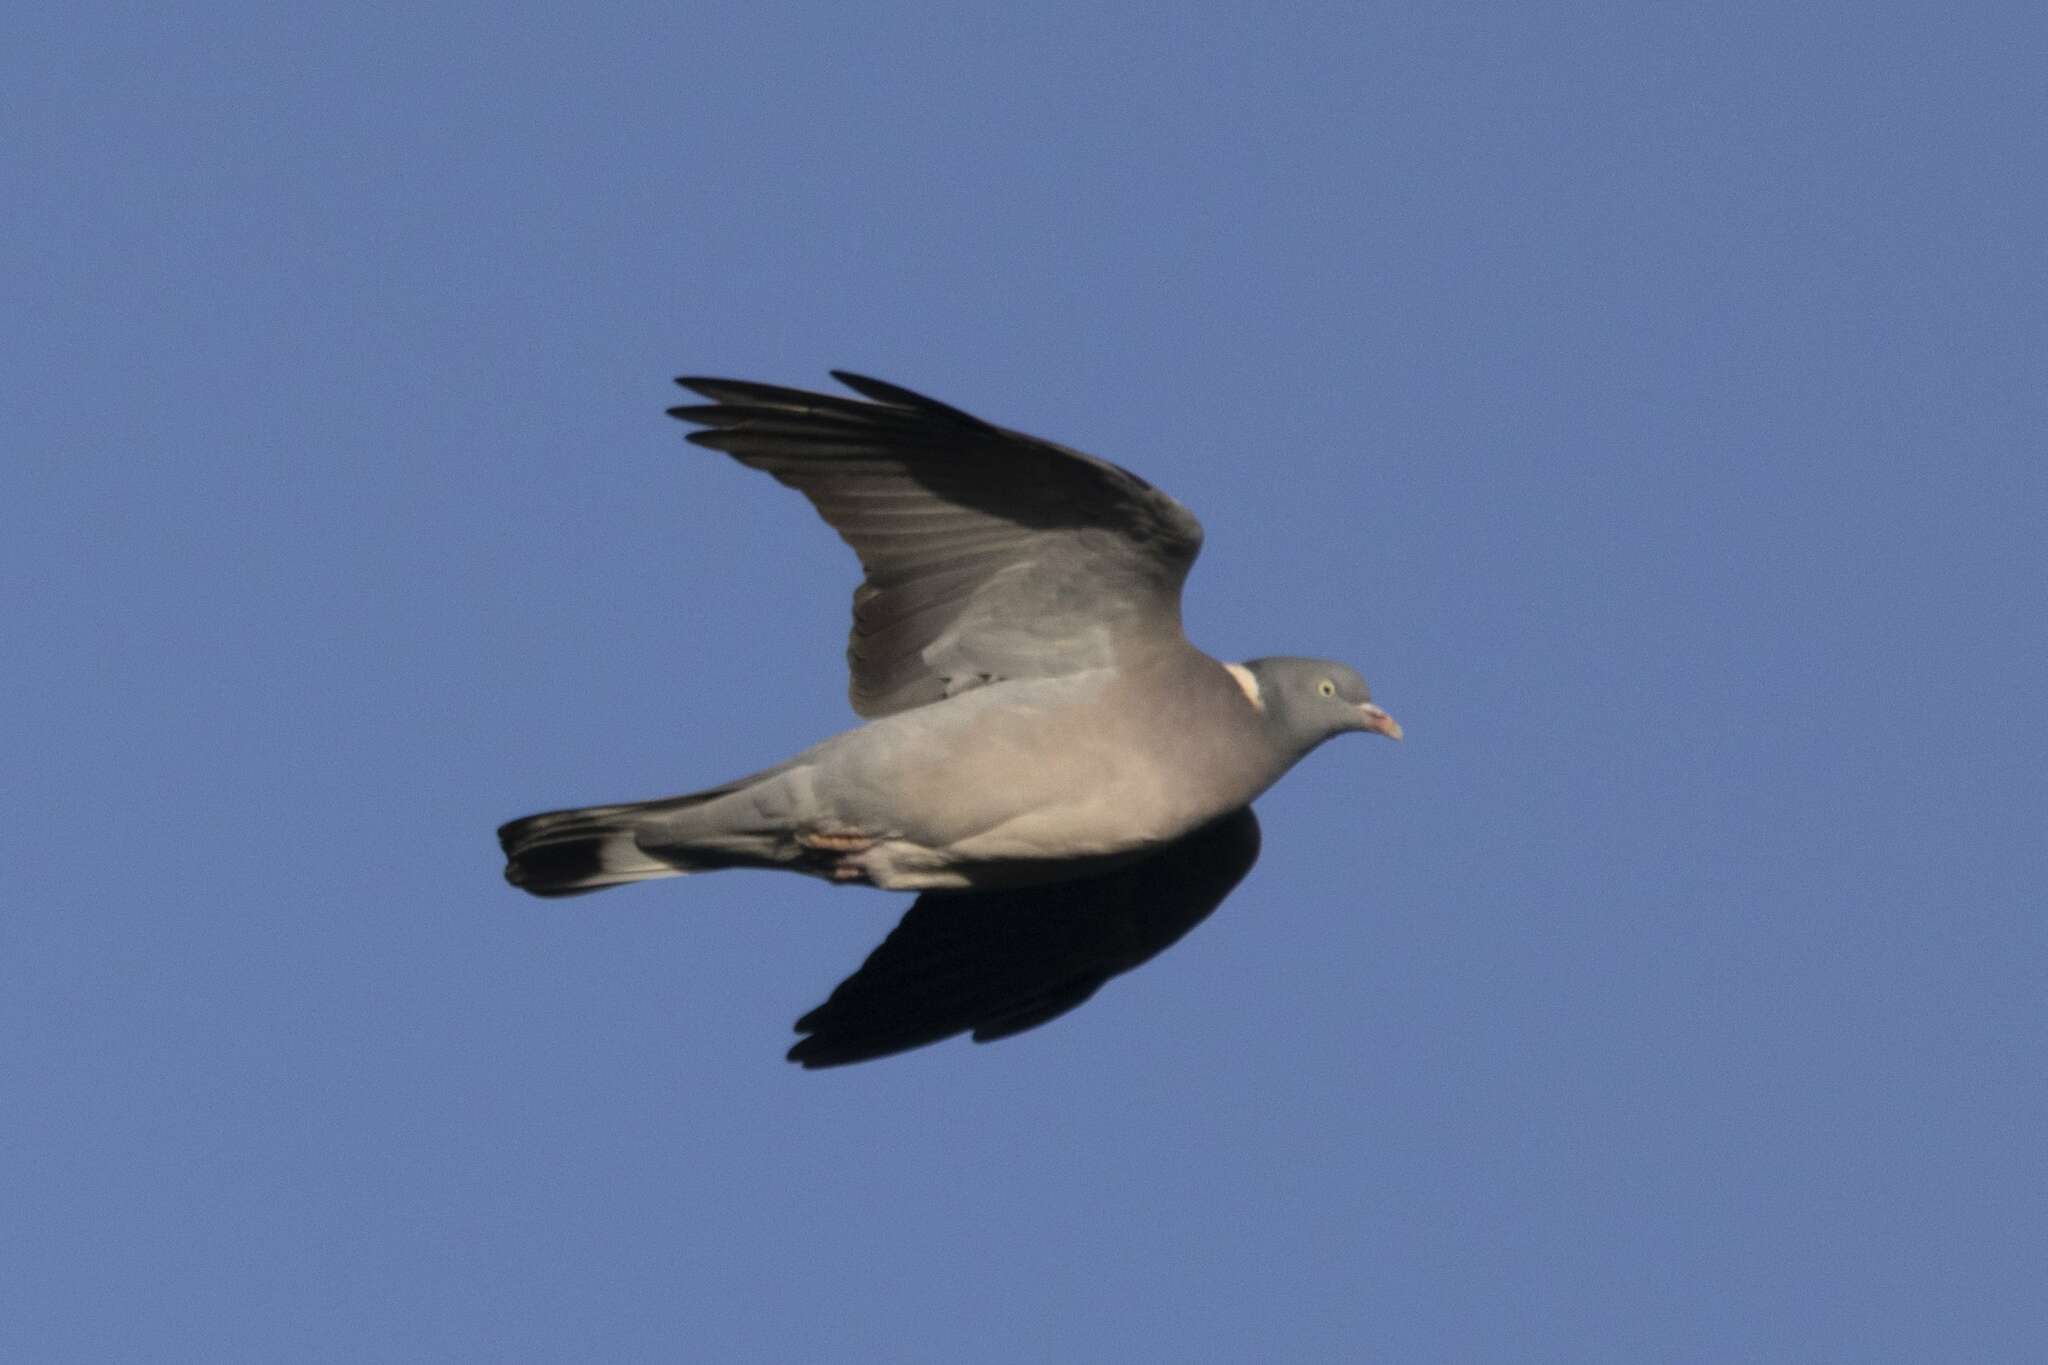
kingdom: Animalia
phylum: Chordata
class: Aves
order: Columbiformes
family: Columbidae
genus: Columba
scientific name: Columba palumbus
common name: Common wood pigeon
